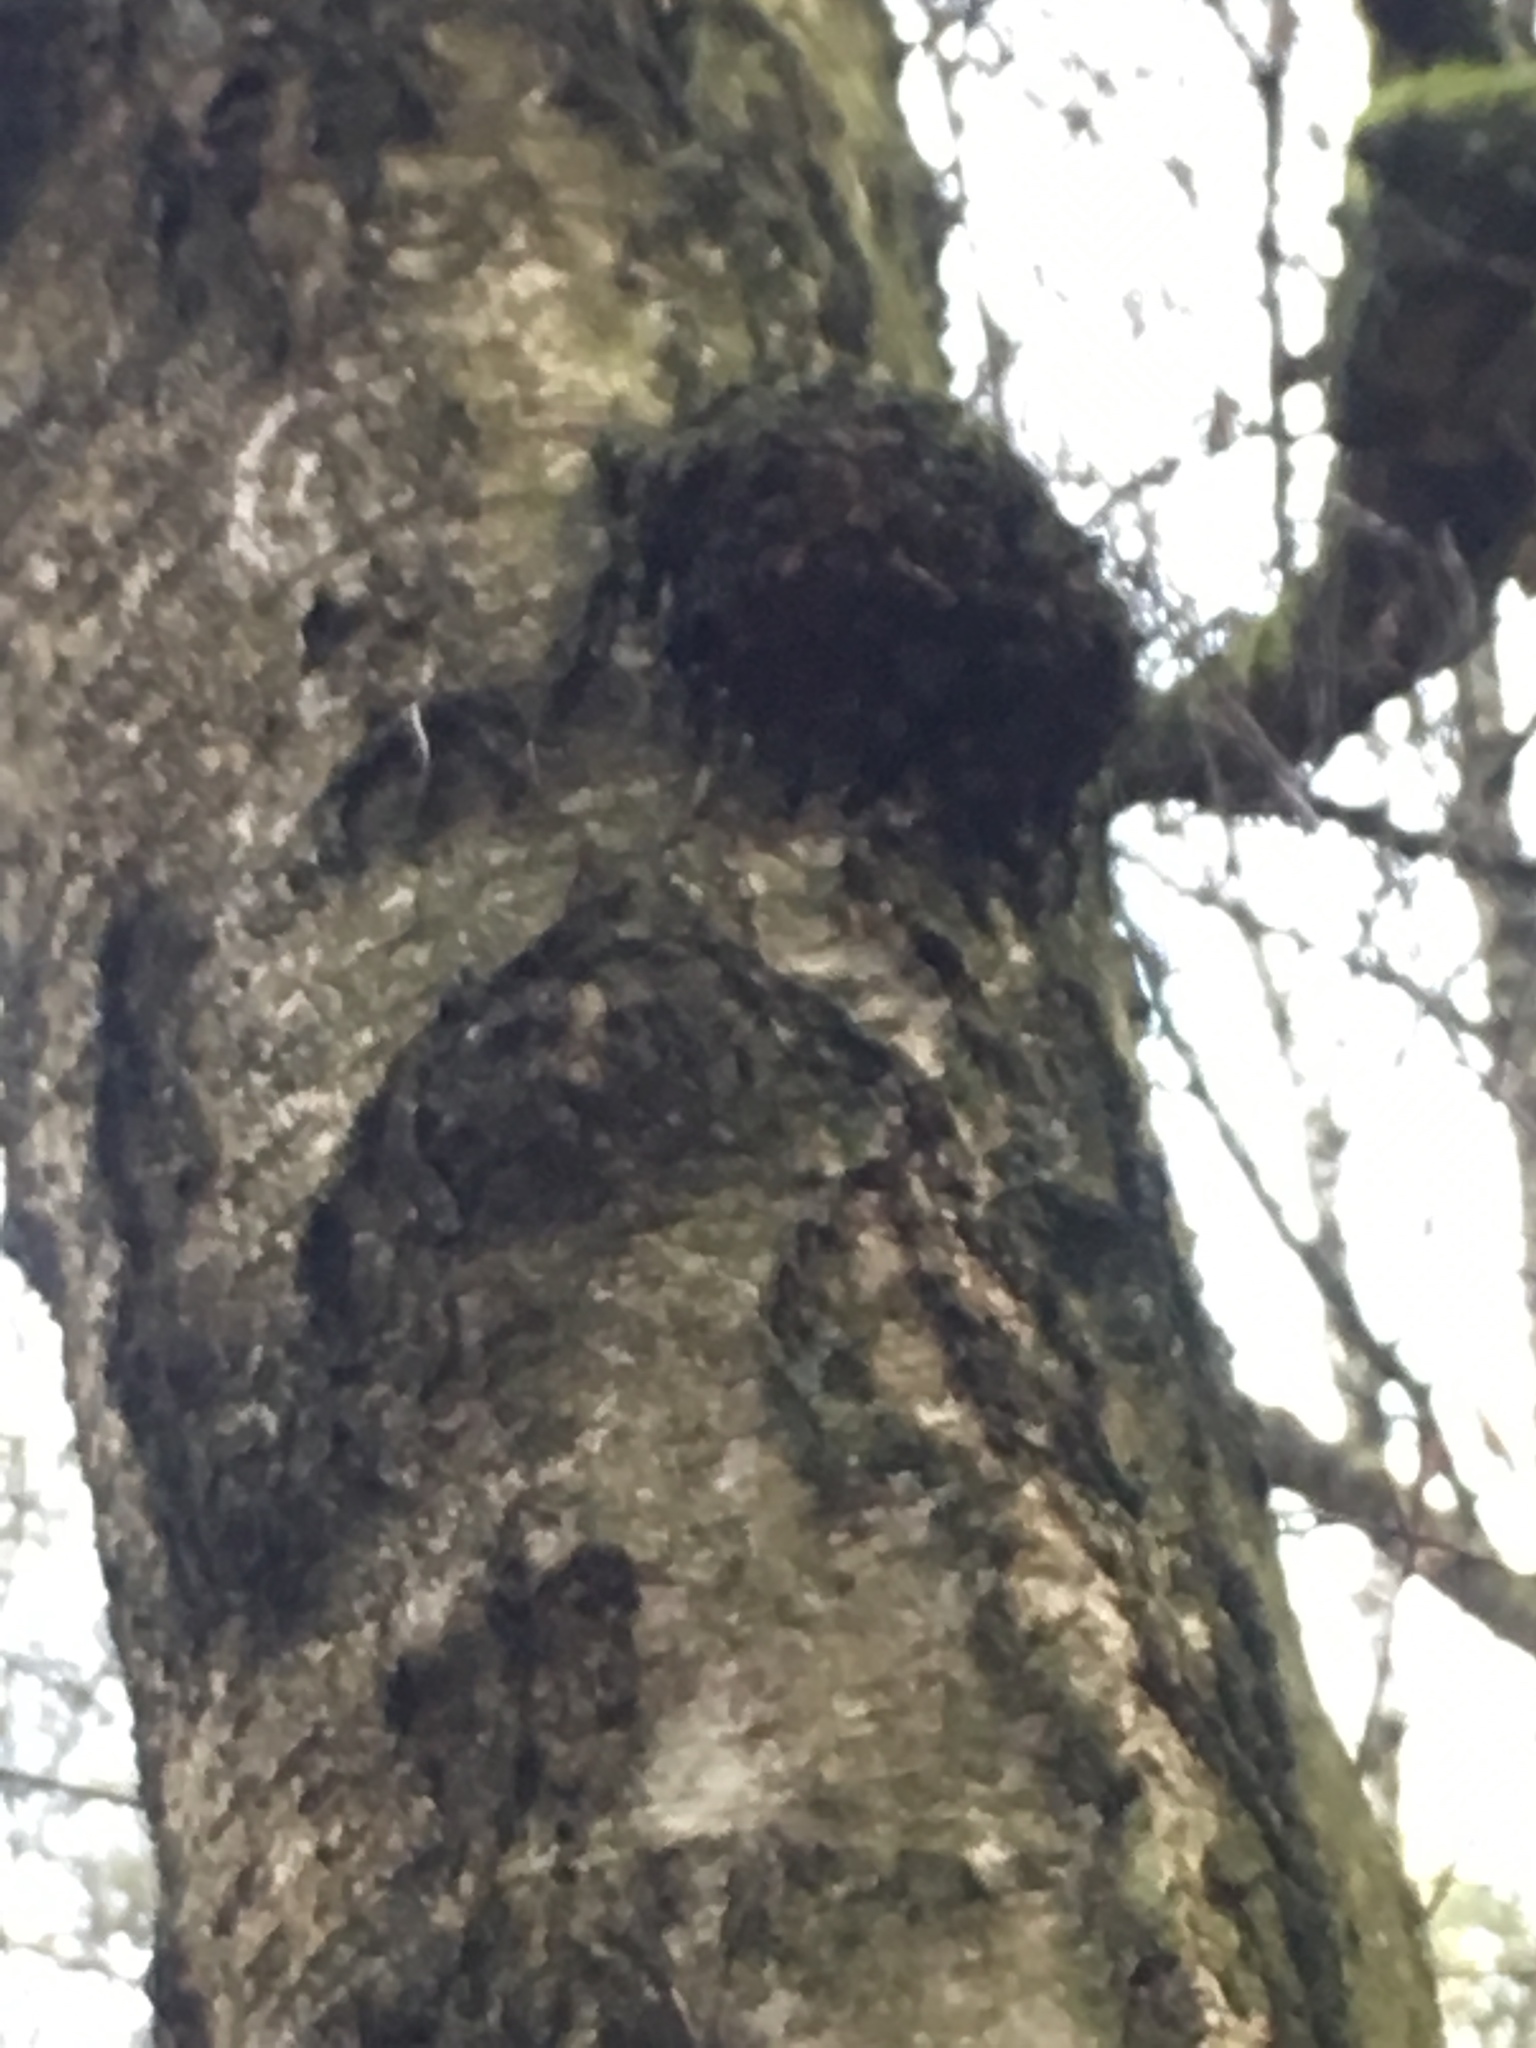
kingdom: Fungi
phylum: Basidiomycota
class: Agaricomycetes
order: Hymenochaetales
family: Hymenochaetaceae
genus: Inonotus
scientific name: Inonotus obliquus
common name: Chaga
